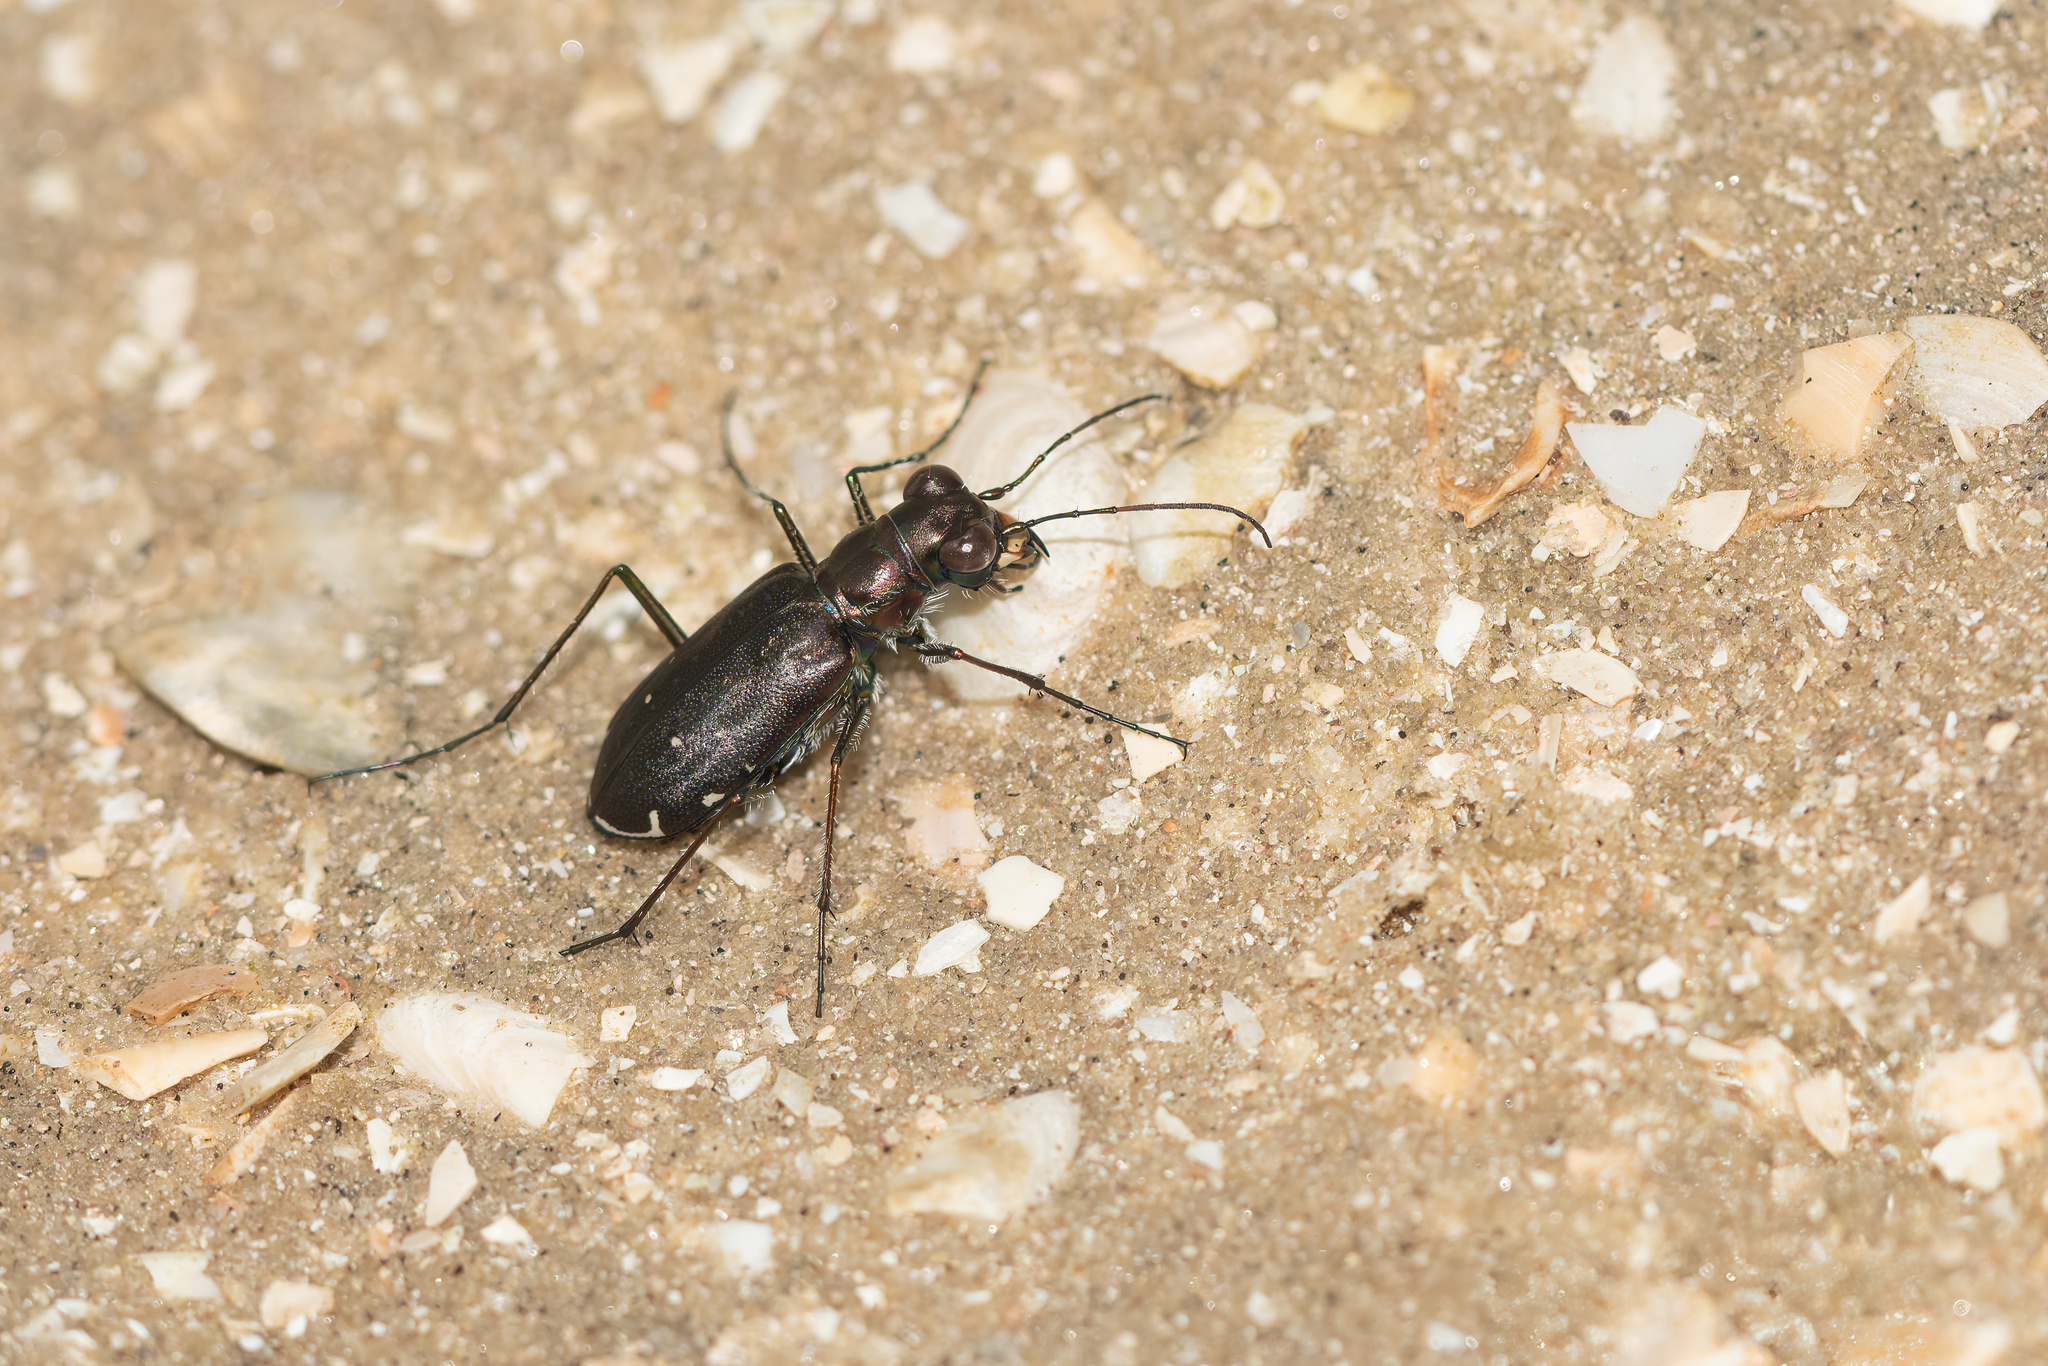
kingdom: Animalia
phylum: Arthropoda
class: Insecta
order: Coleoptera
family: Carabidae
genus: Cicindela
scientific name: Cicindela punctulata
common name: Punctured tiger beetle
